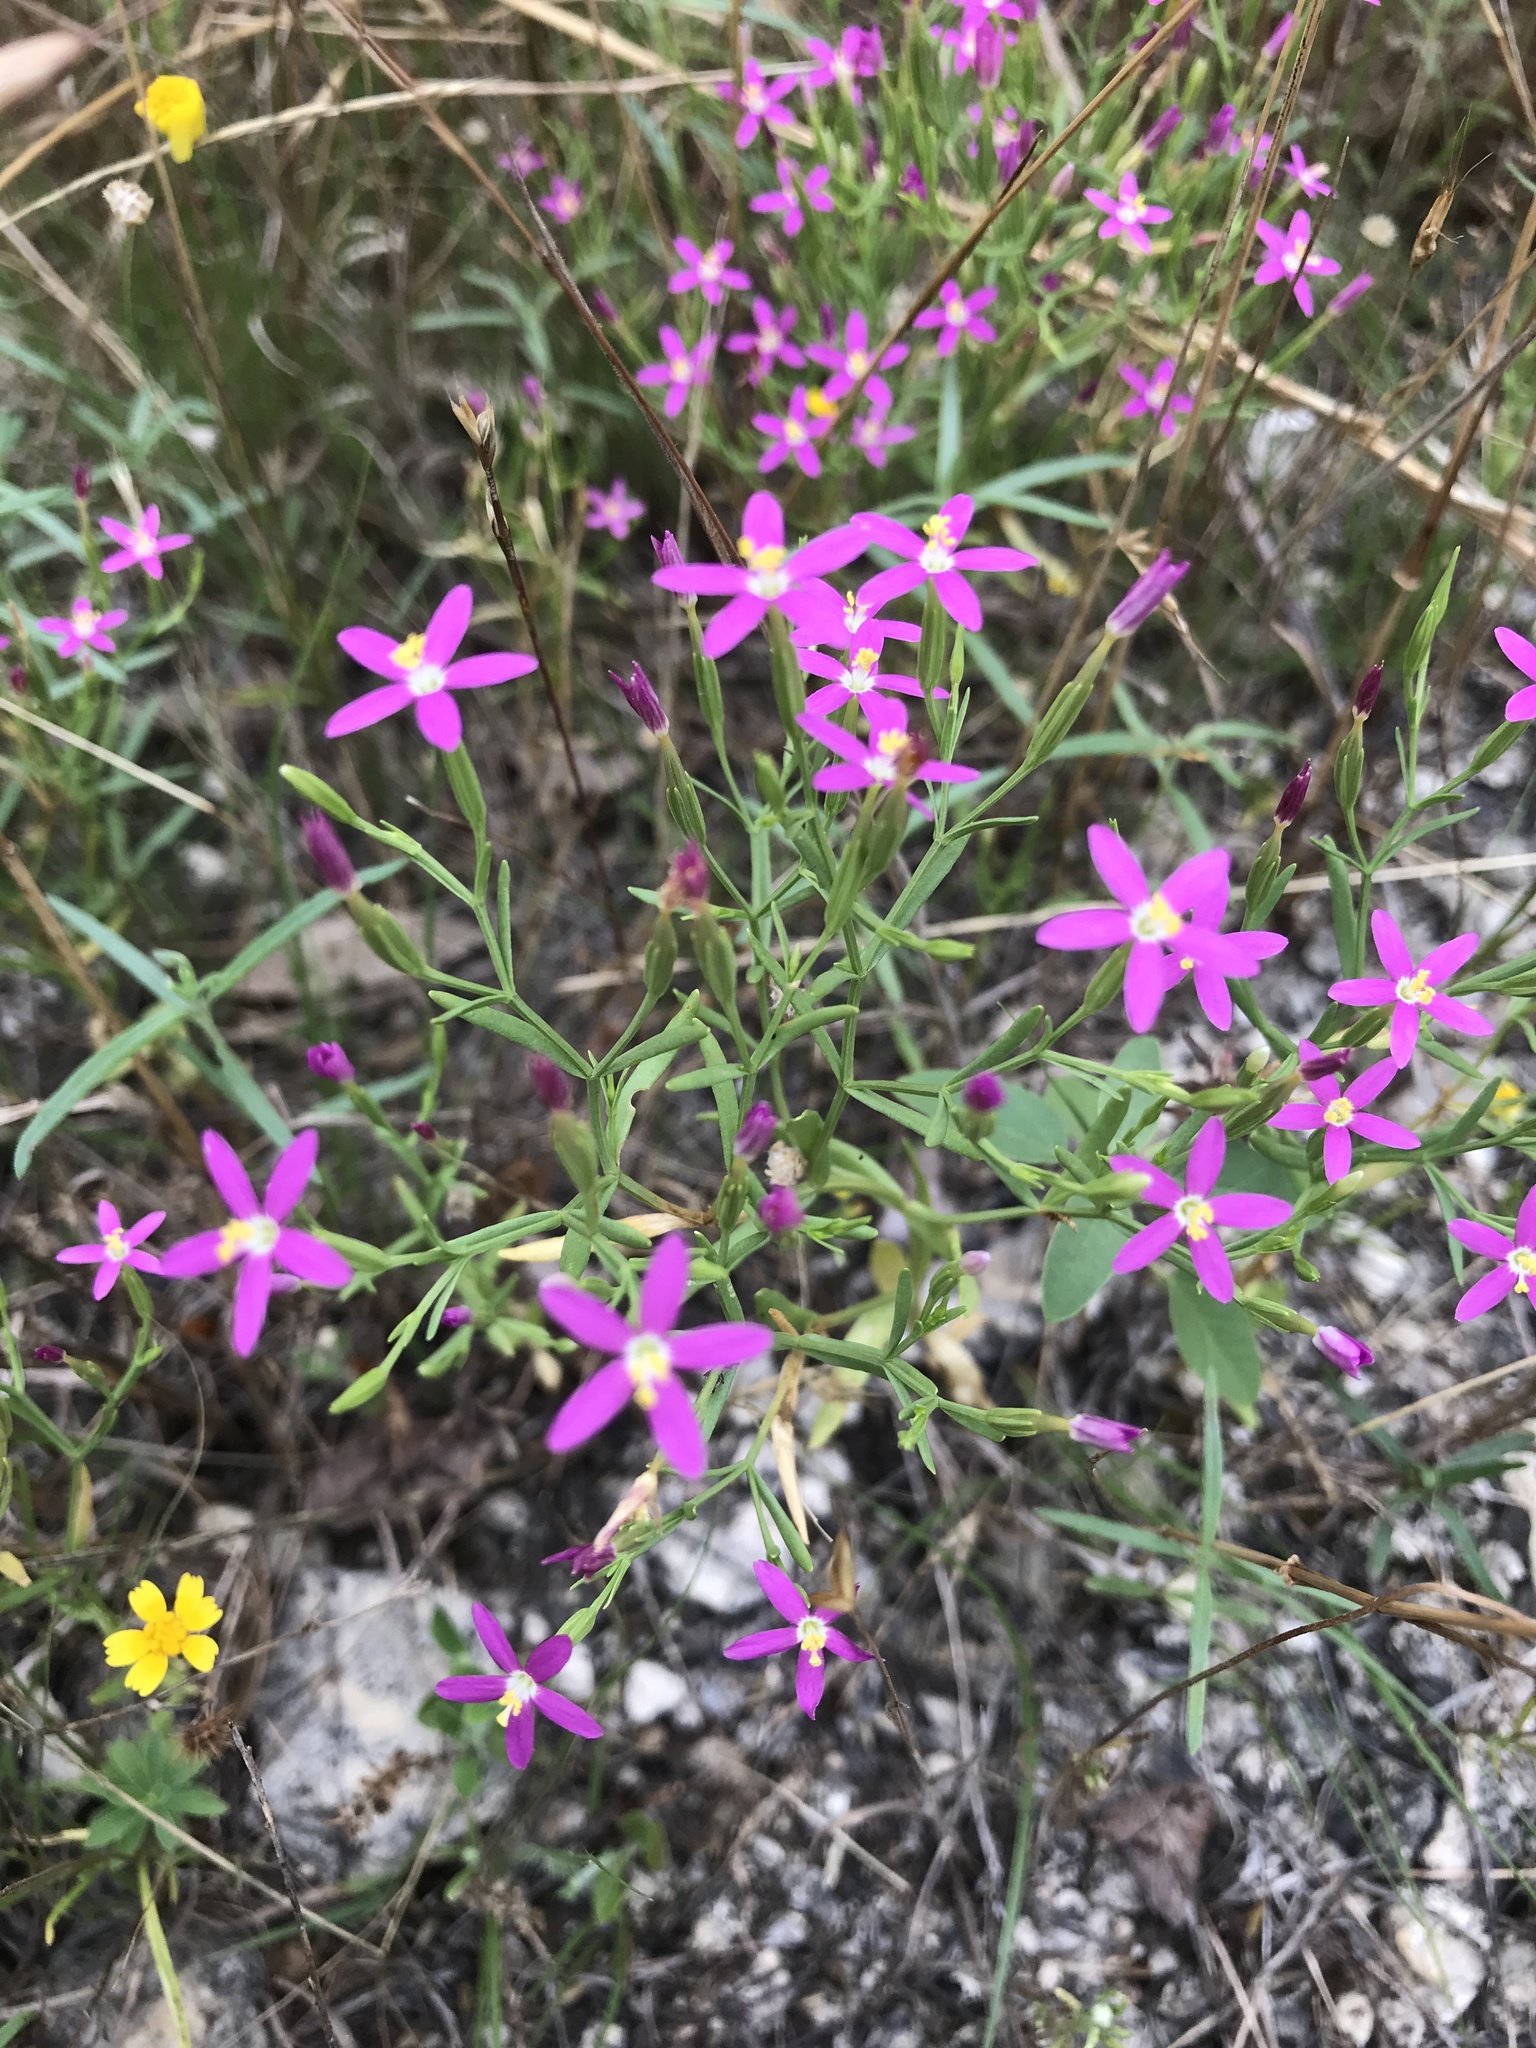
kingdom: Plantae
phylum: Tracheophyta
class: Magnoliopsida
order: Gentianales
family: Gentianaceae
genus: Zeltnera
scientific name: Zeltnera texensis
